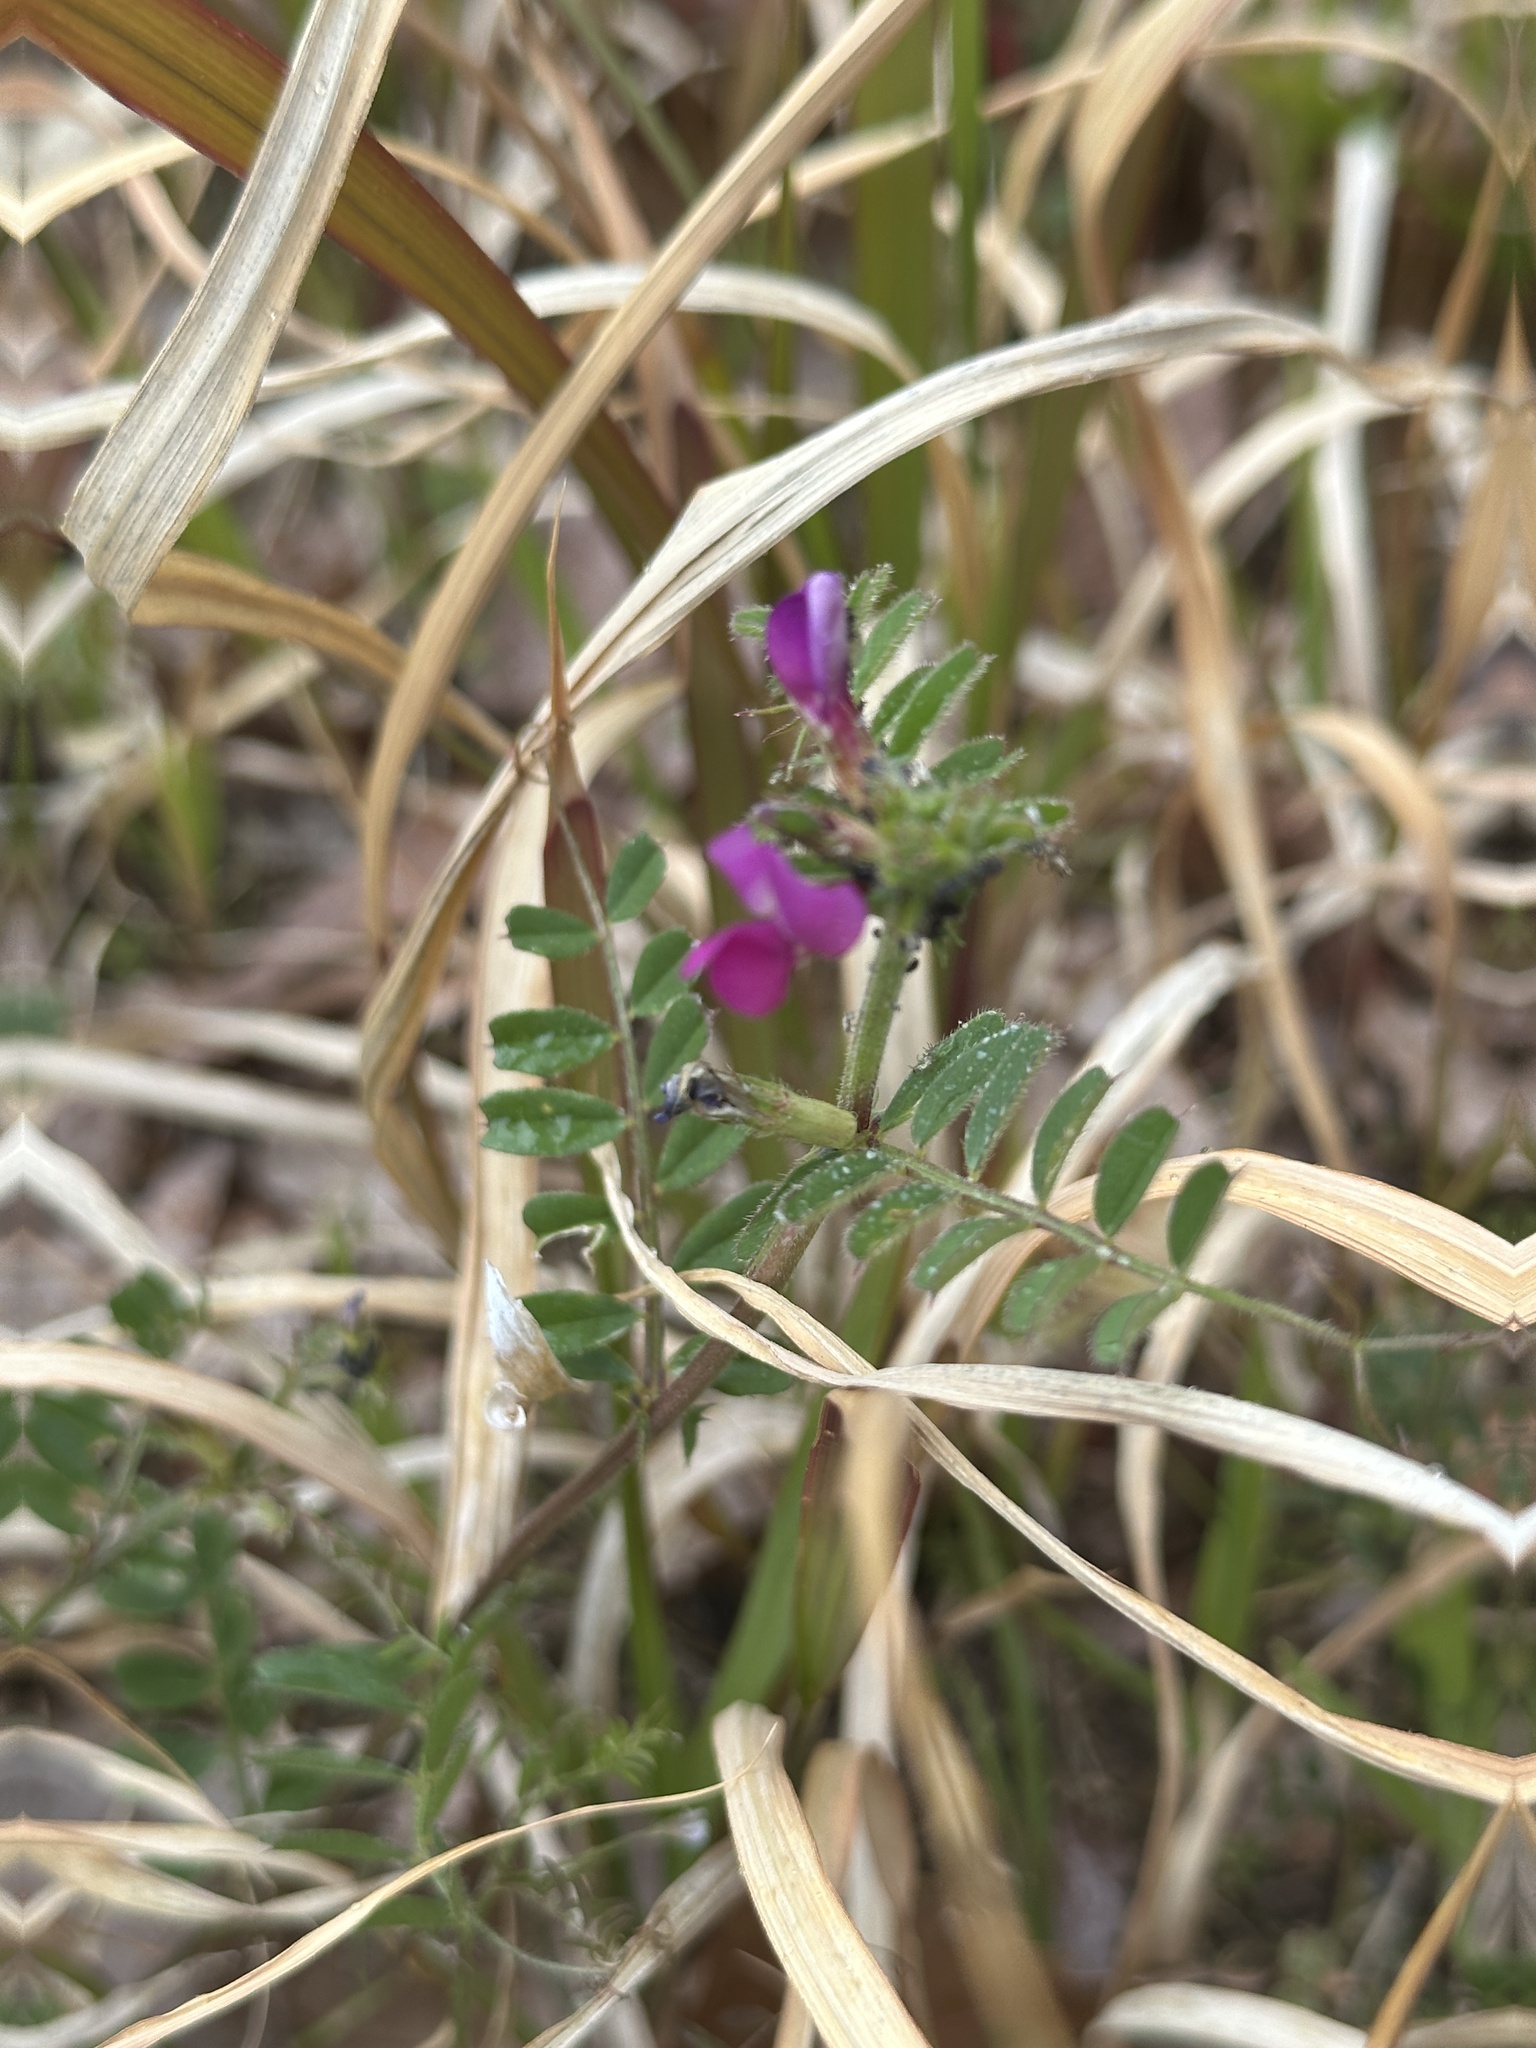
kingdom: Plantae
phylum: Tracheophyta
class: Magnoliopsida
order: Fabales
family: Fabaceae
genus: Vicia
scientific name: Vicia sativa
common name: Garden vetch
